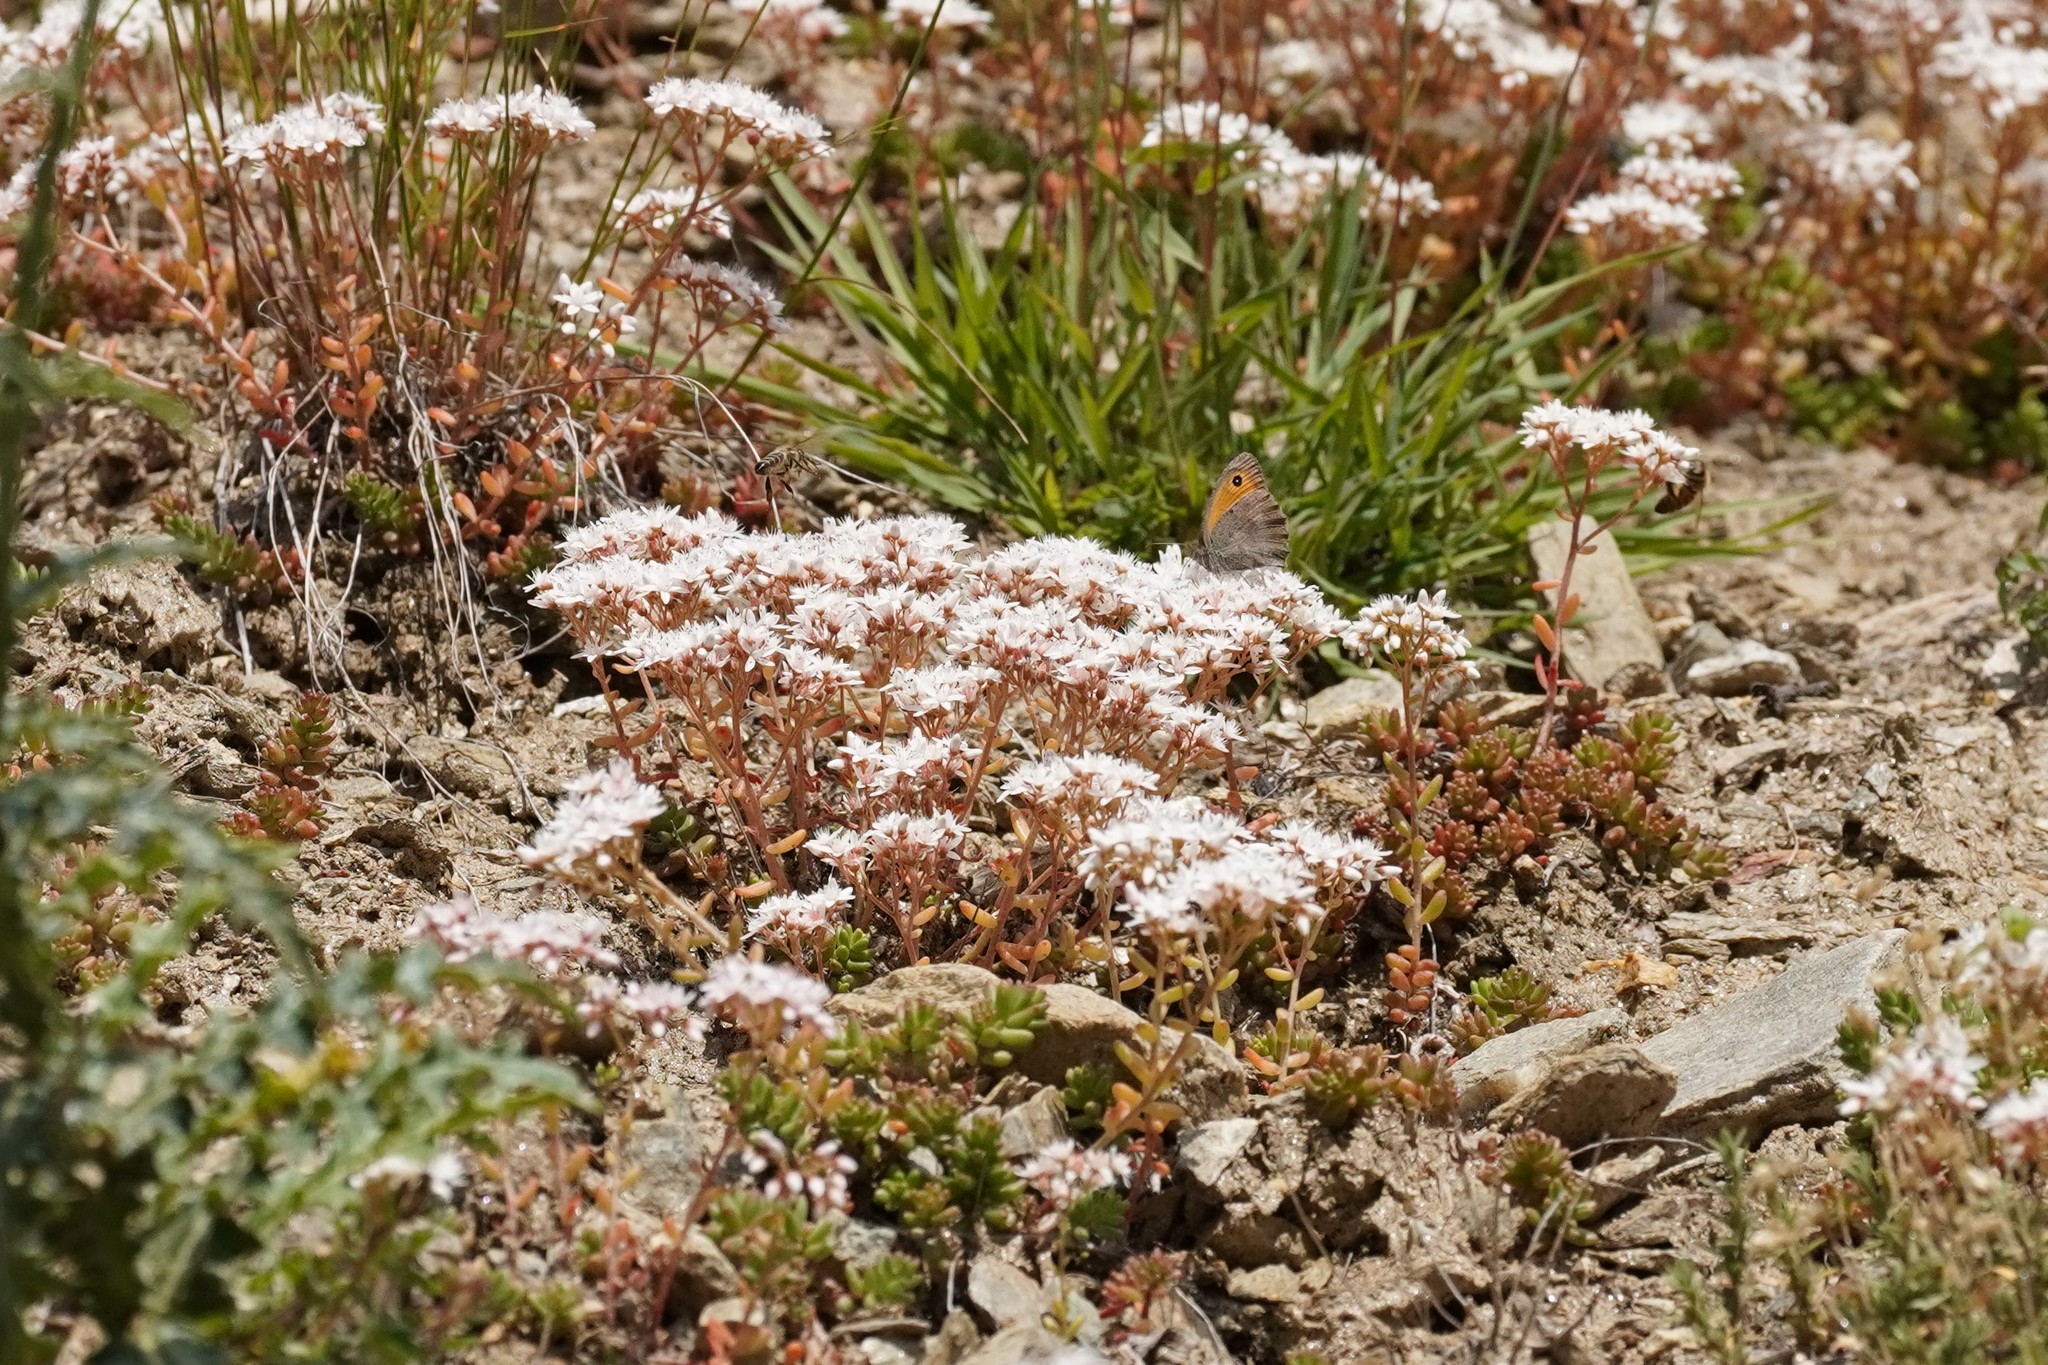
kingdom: Animalia
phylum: Arthropoda
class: Insecta
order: Lepidoptera
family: Nymphalidae
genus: Hyponephele
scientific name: Hyponephele lycaon
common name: Dusky meadow brown
